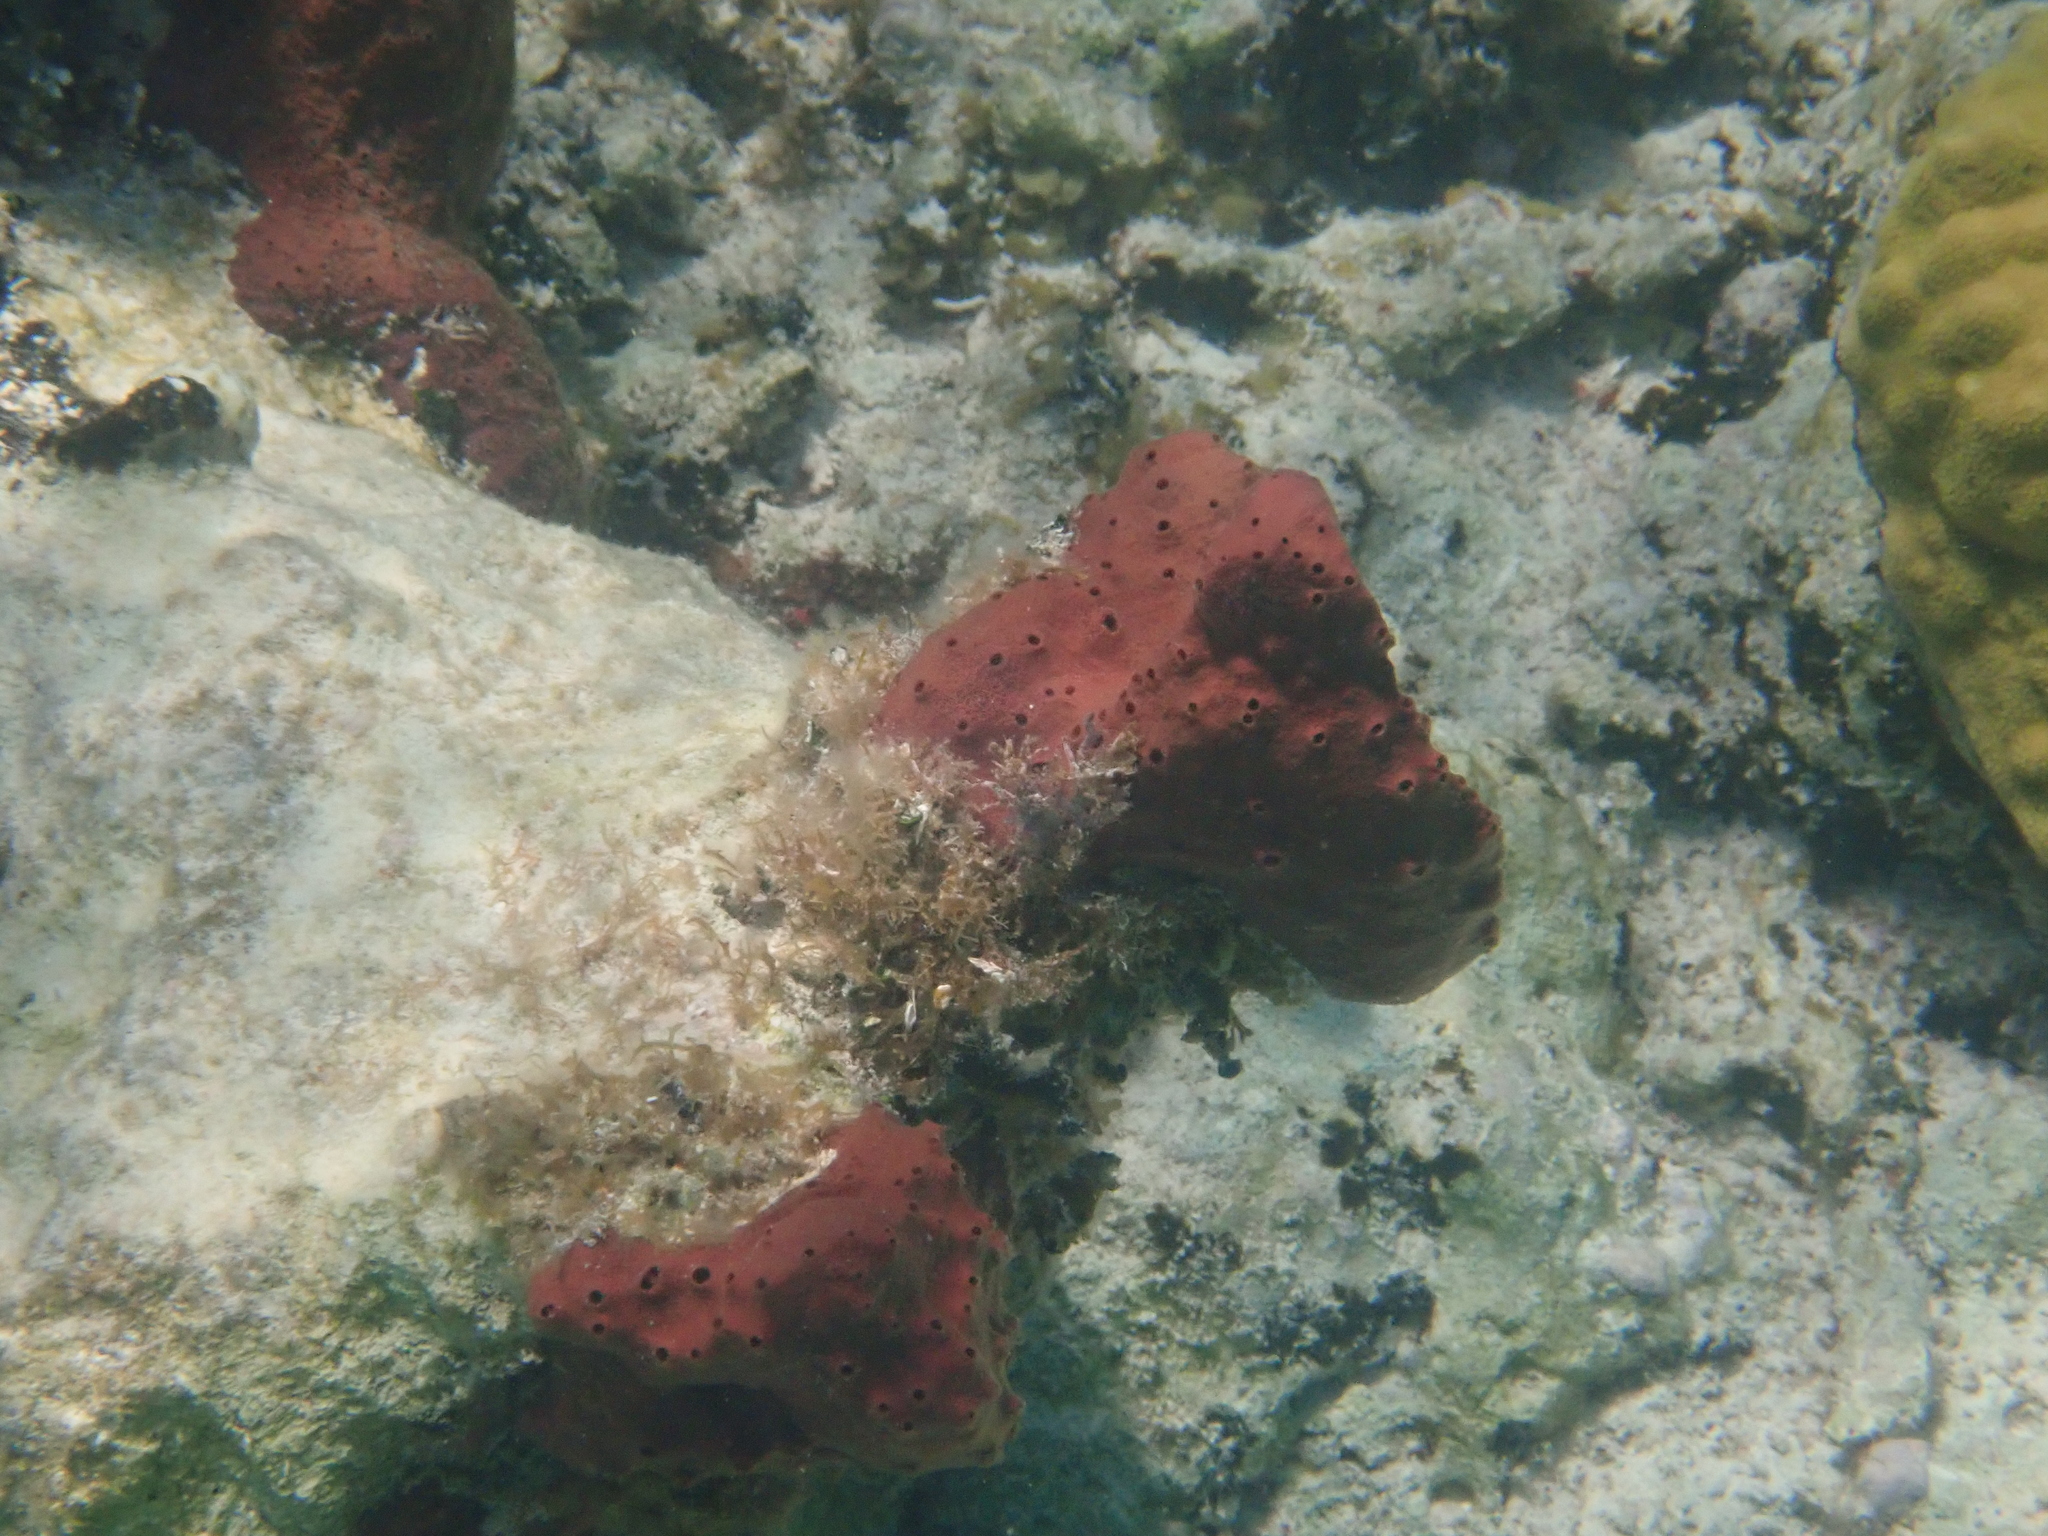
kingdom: Animalia
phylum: Porifera
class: Demospongiae
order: Haplosclerida
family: Niphatidae
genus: Amphimedon
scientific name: Amphimedon compressa
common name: Red sponge
